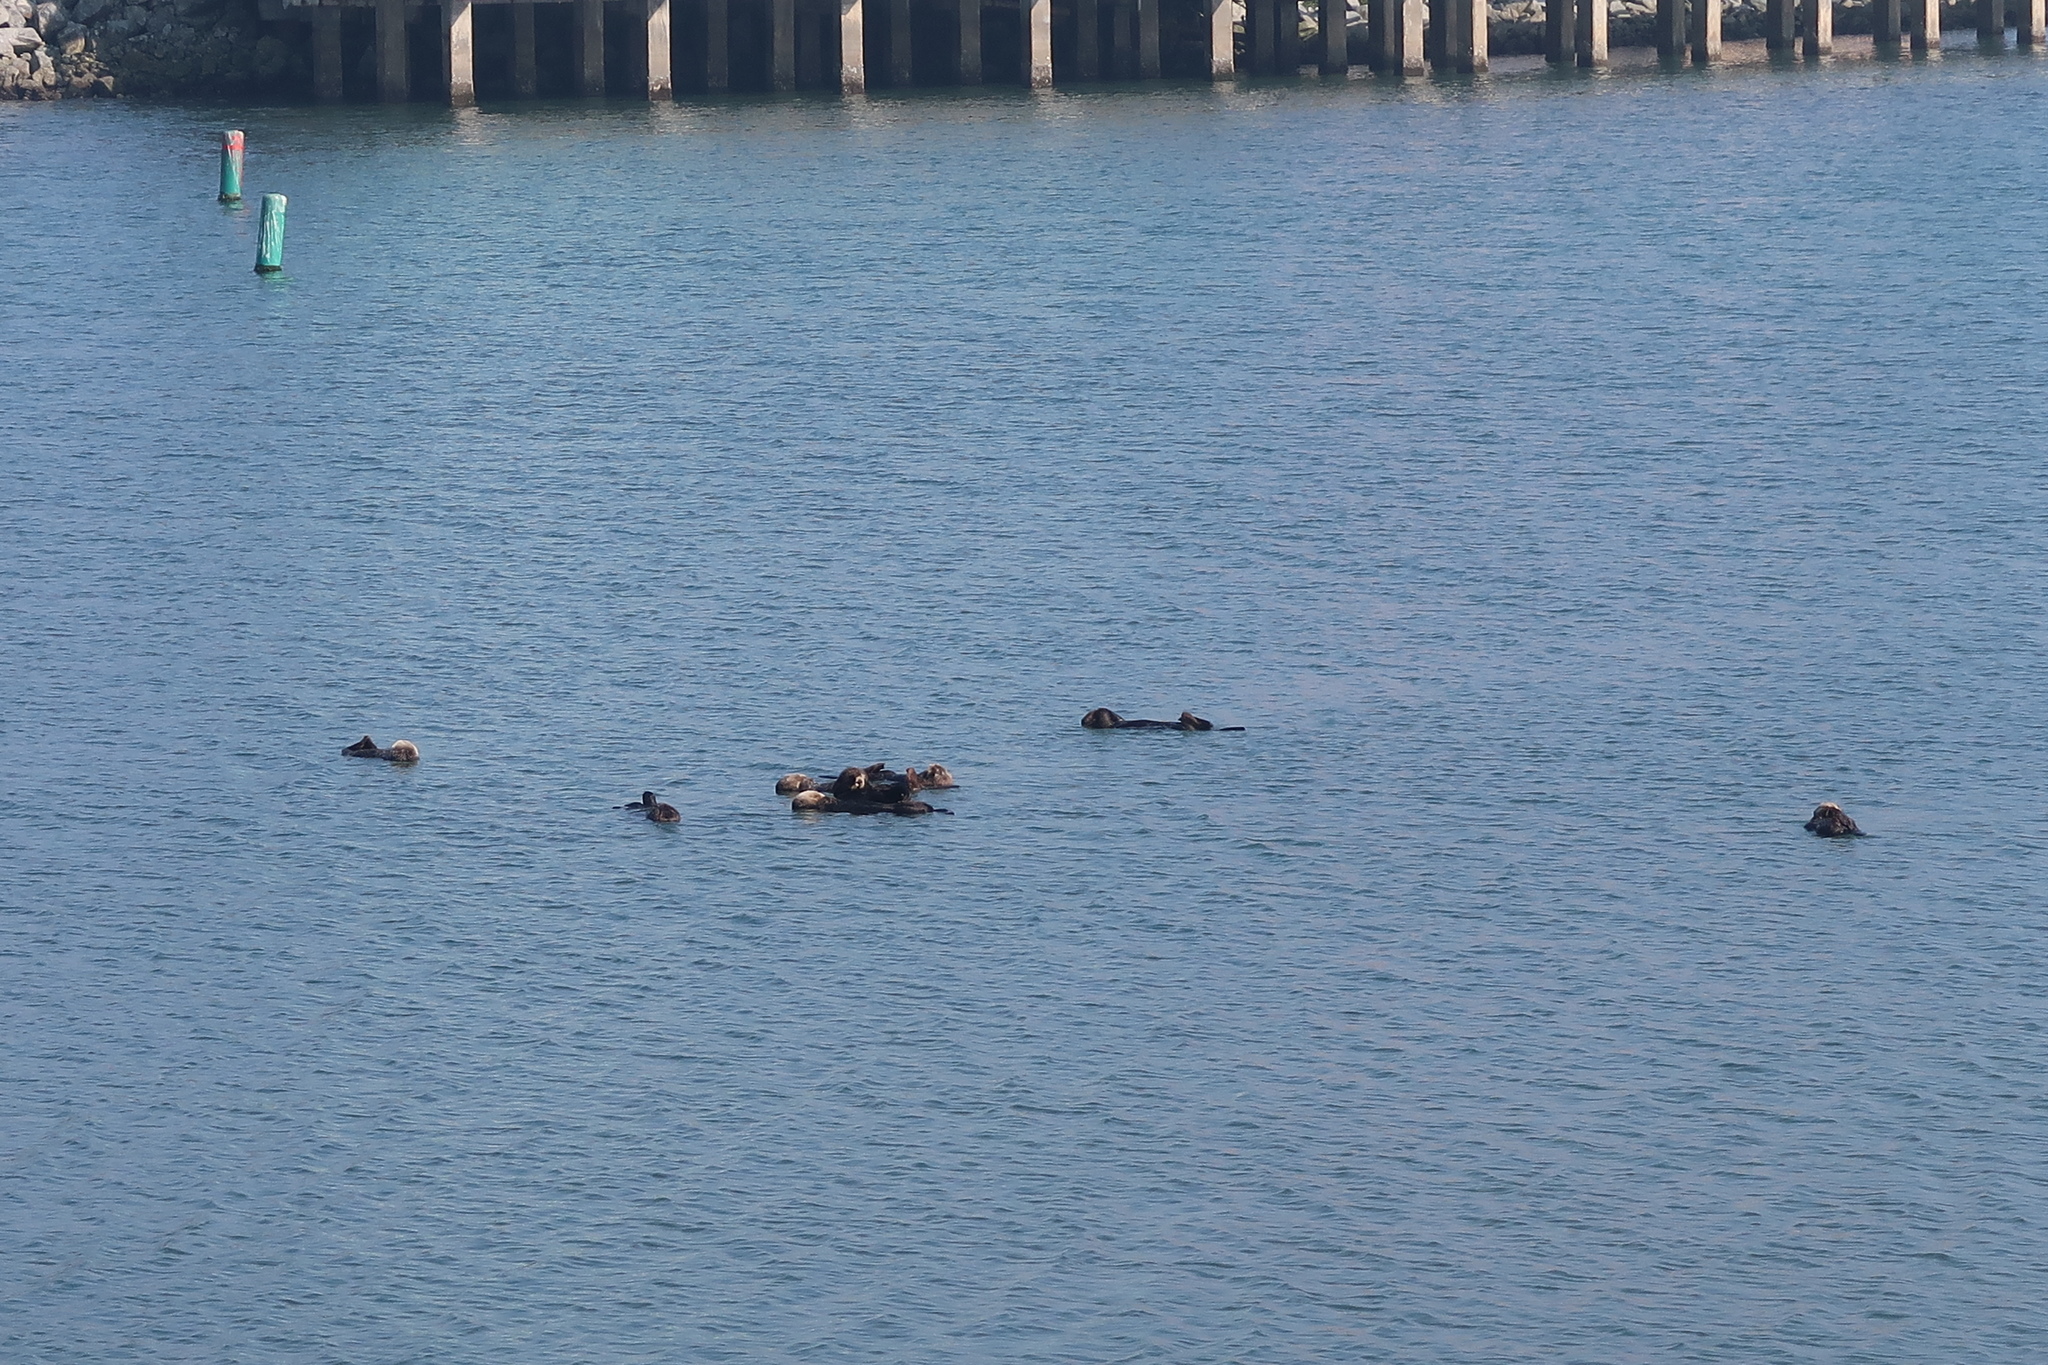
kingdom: Animalia
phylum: Chordata
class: Mammalia
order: Carnivora
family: Mustelidae
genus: Enhydra
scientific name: Enhydra lutris
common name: Sea otter
